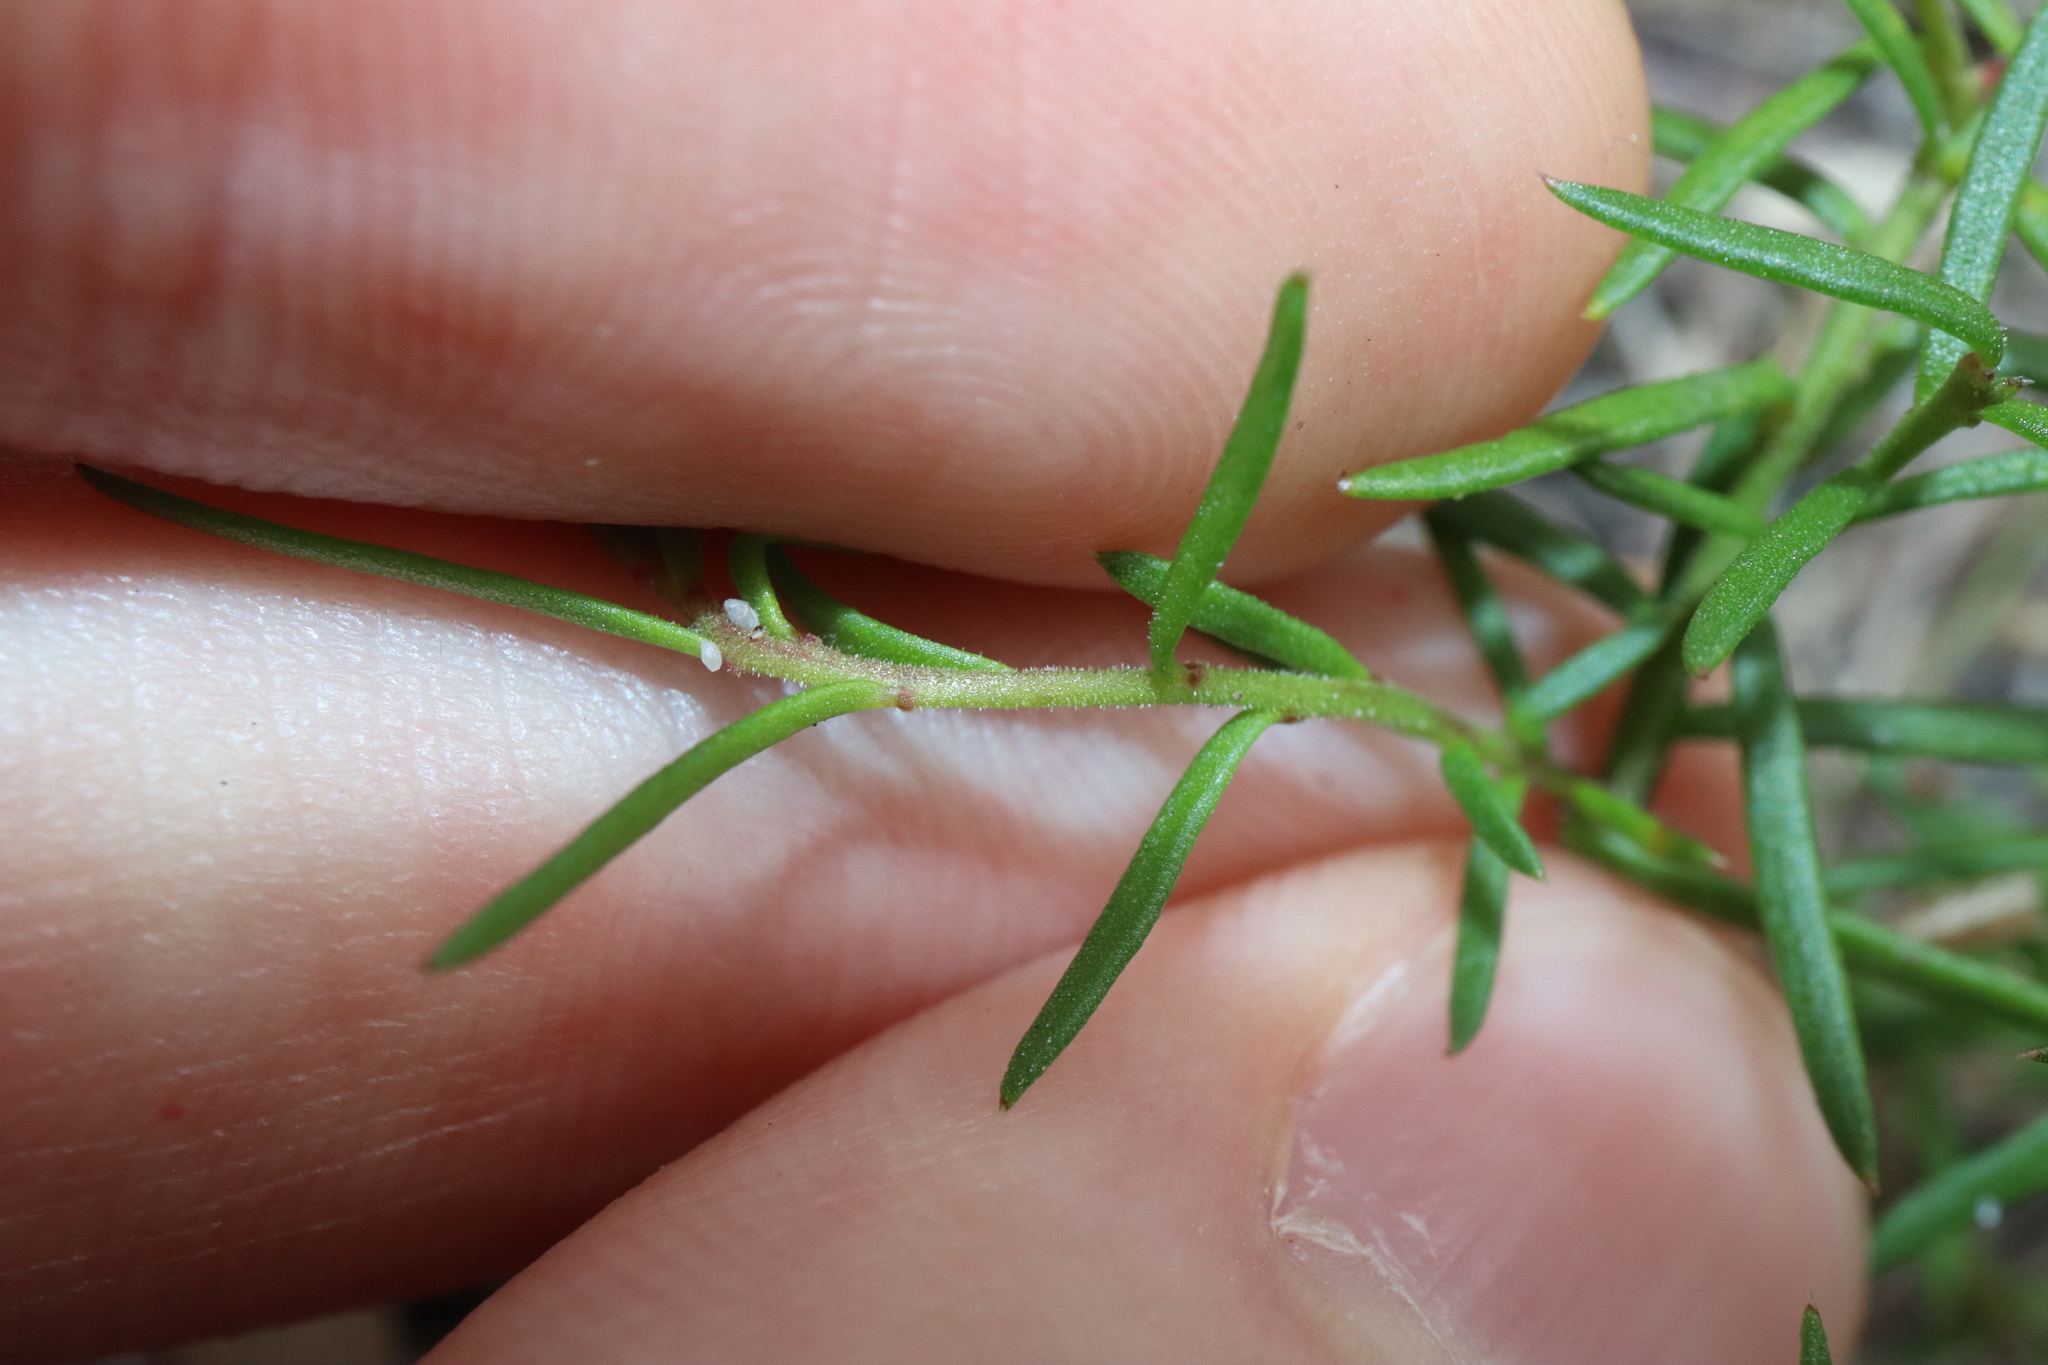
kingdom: Plantae
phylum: Tracheophyta
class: Magnoliopsida
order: Apiales
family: Apiaceae
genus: Platysace
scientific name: Platysace ericoides
